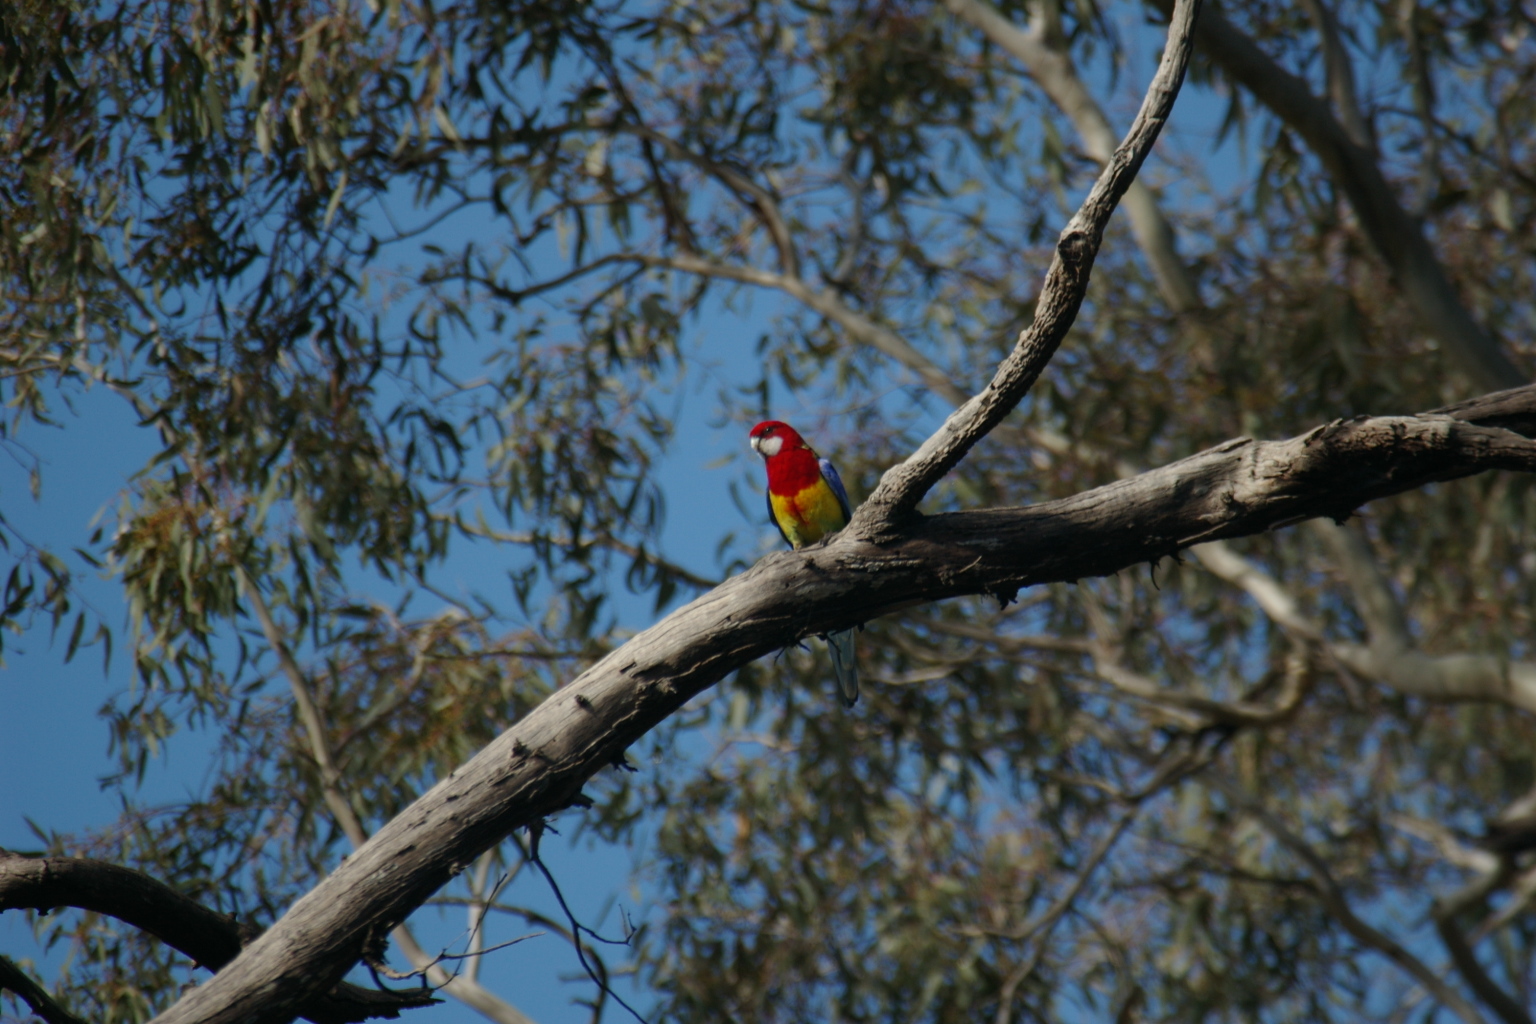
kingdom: Animalia
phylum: Chordata
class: Aves
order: Psittaciformes
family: Psittacidae
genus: Platycercus
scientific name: Platycercus eximius
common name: Eastern rosella
